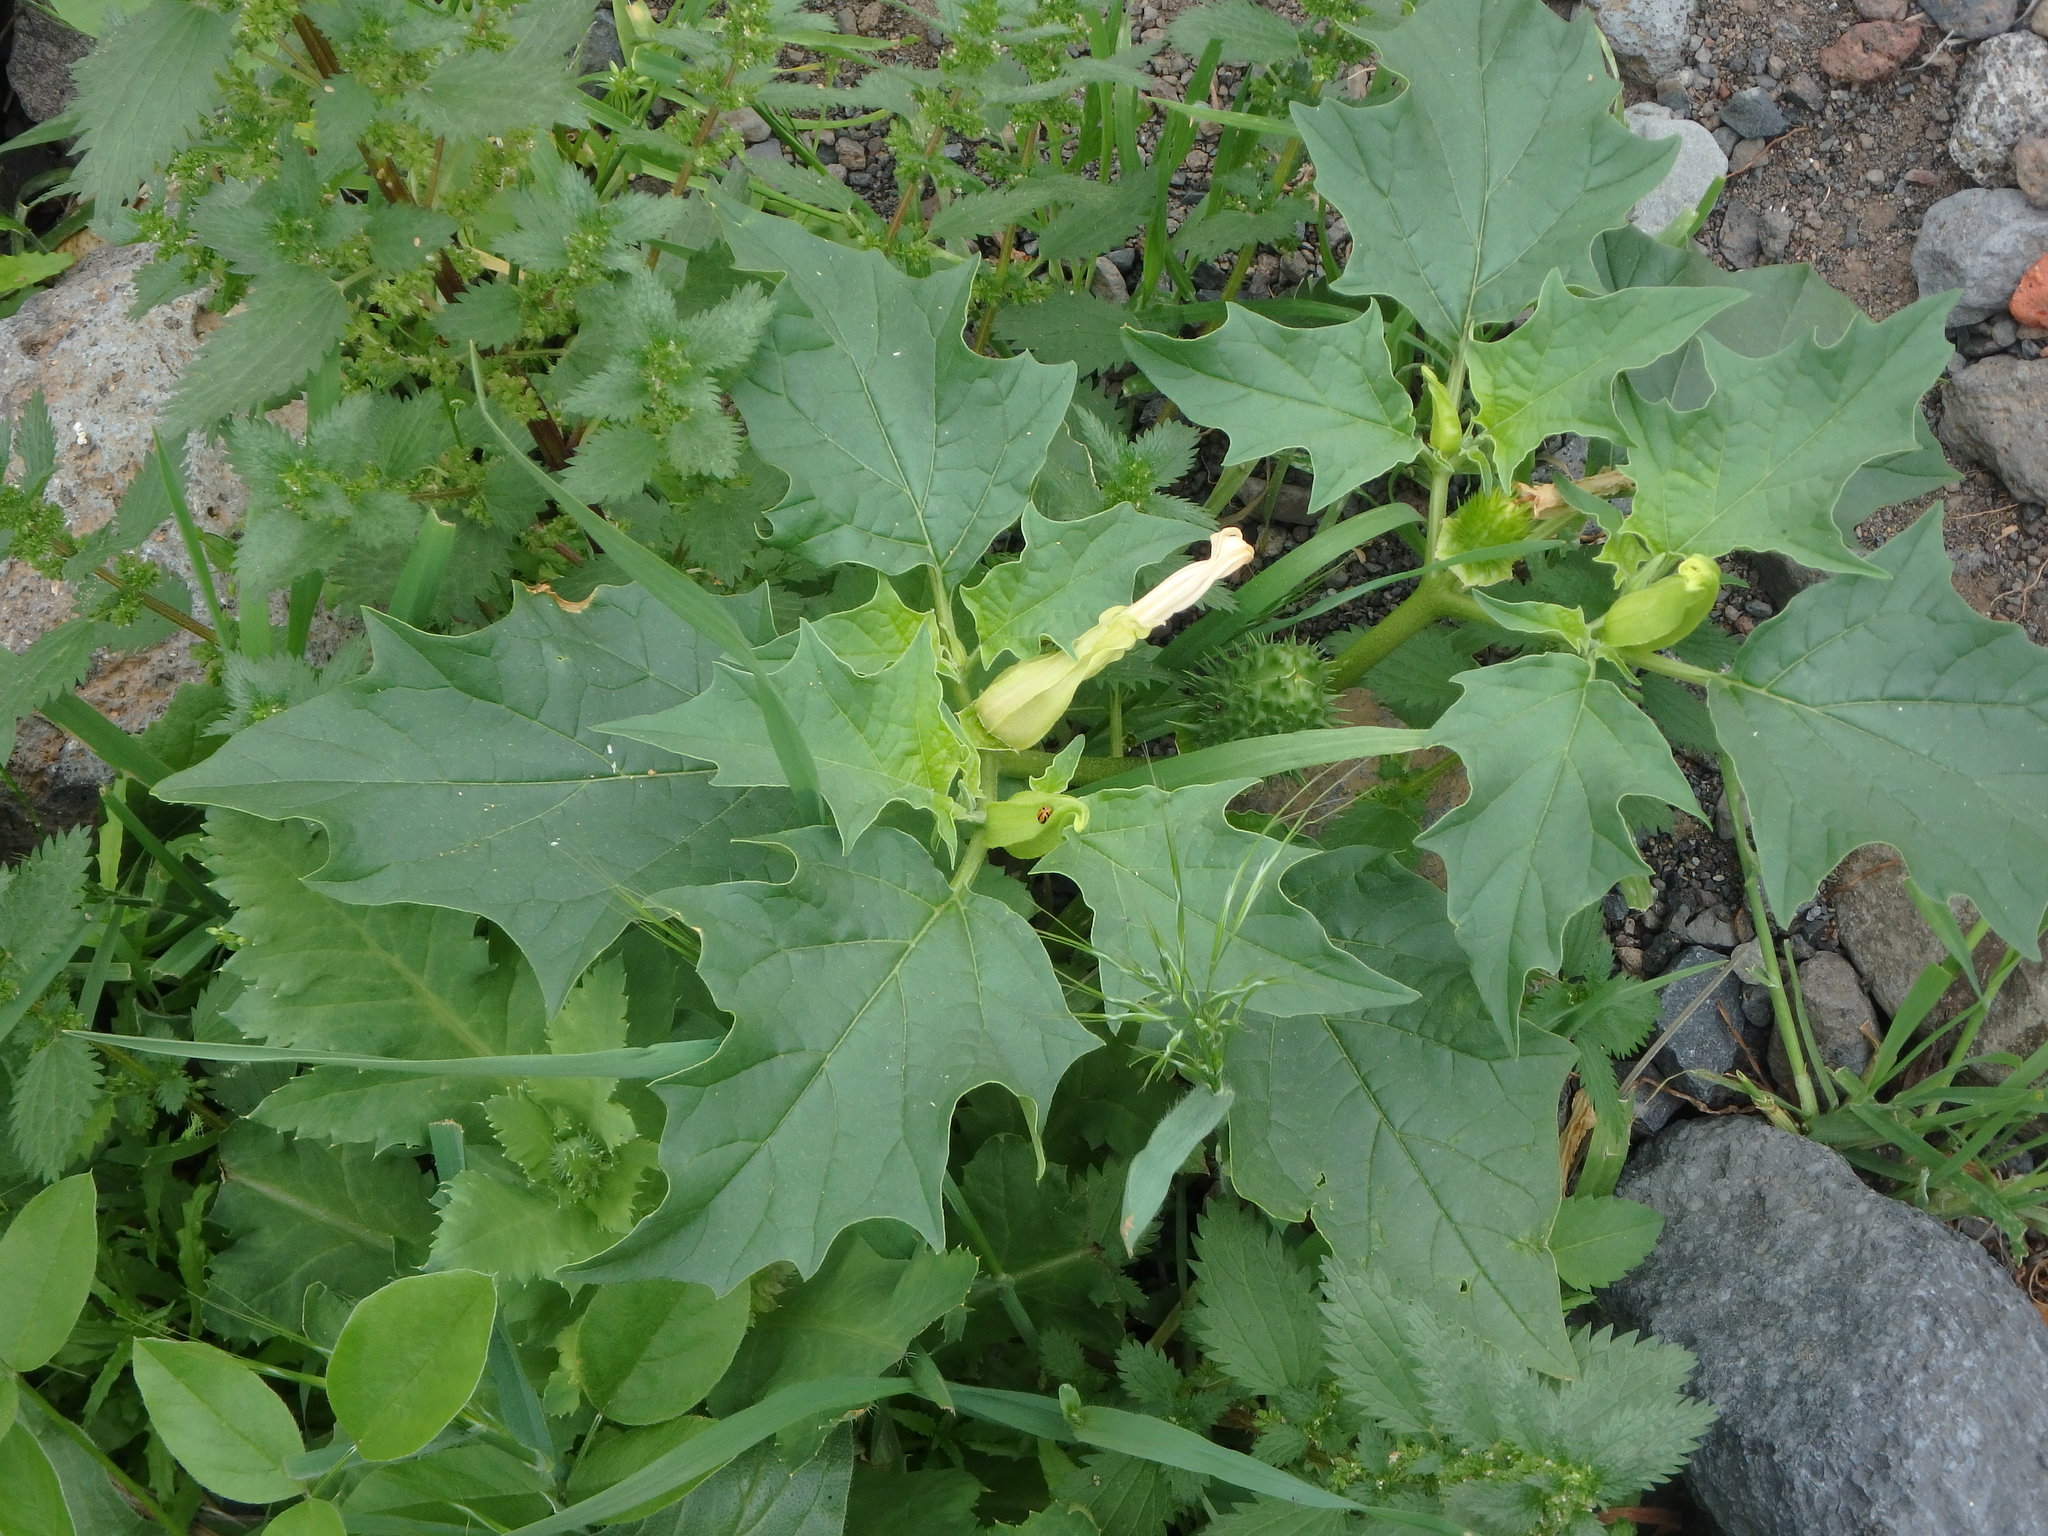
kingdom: Plantae
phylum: Tracheophyta
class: Magnoliopsida
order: Solanales
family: Solanaceae
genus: Datura
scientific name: Datura stramonium
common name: Thorn-apple
